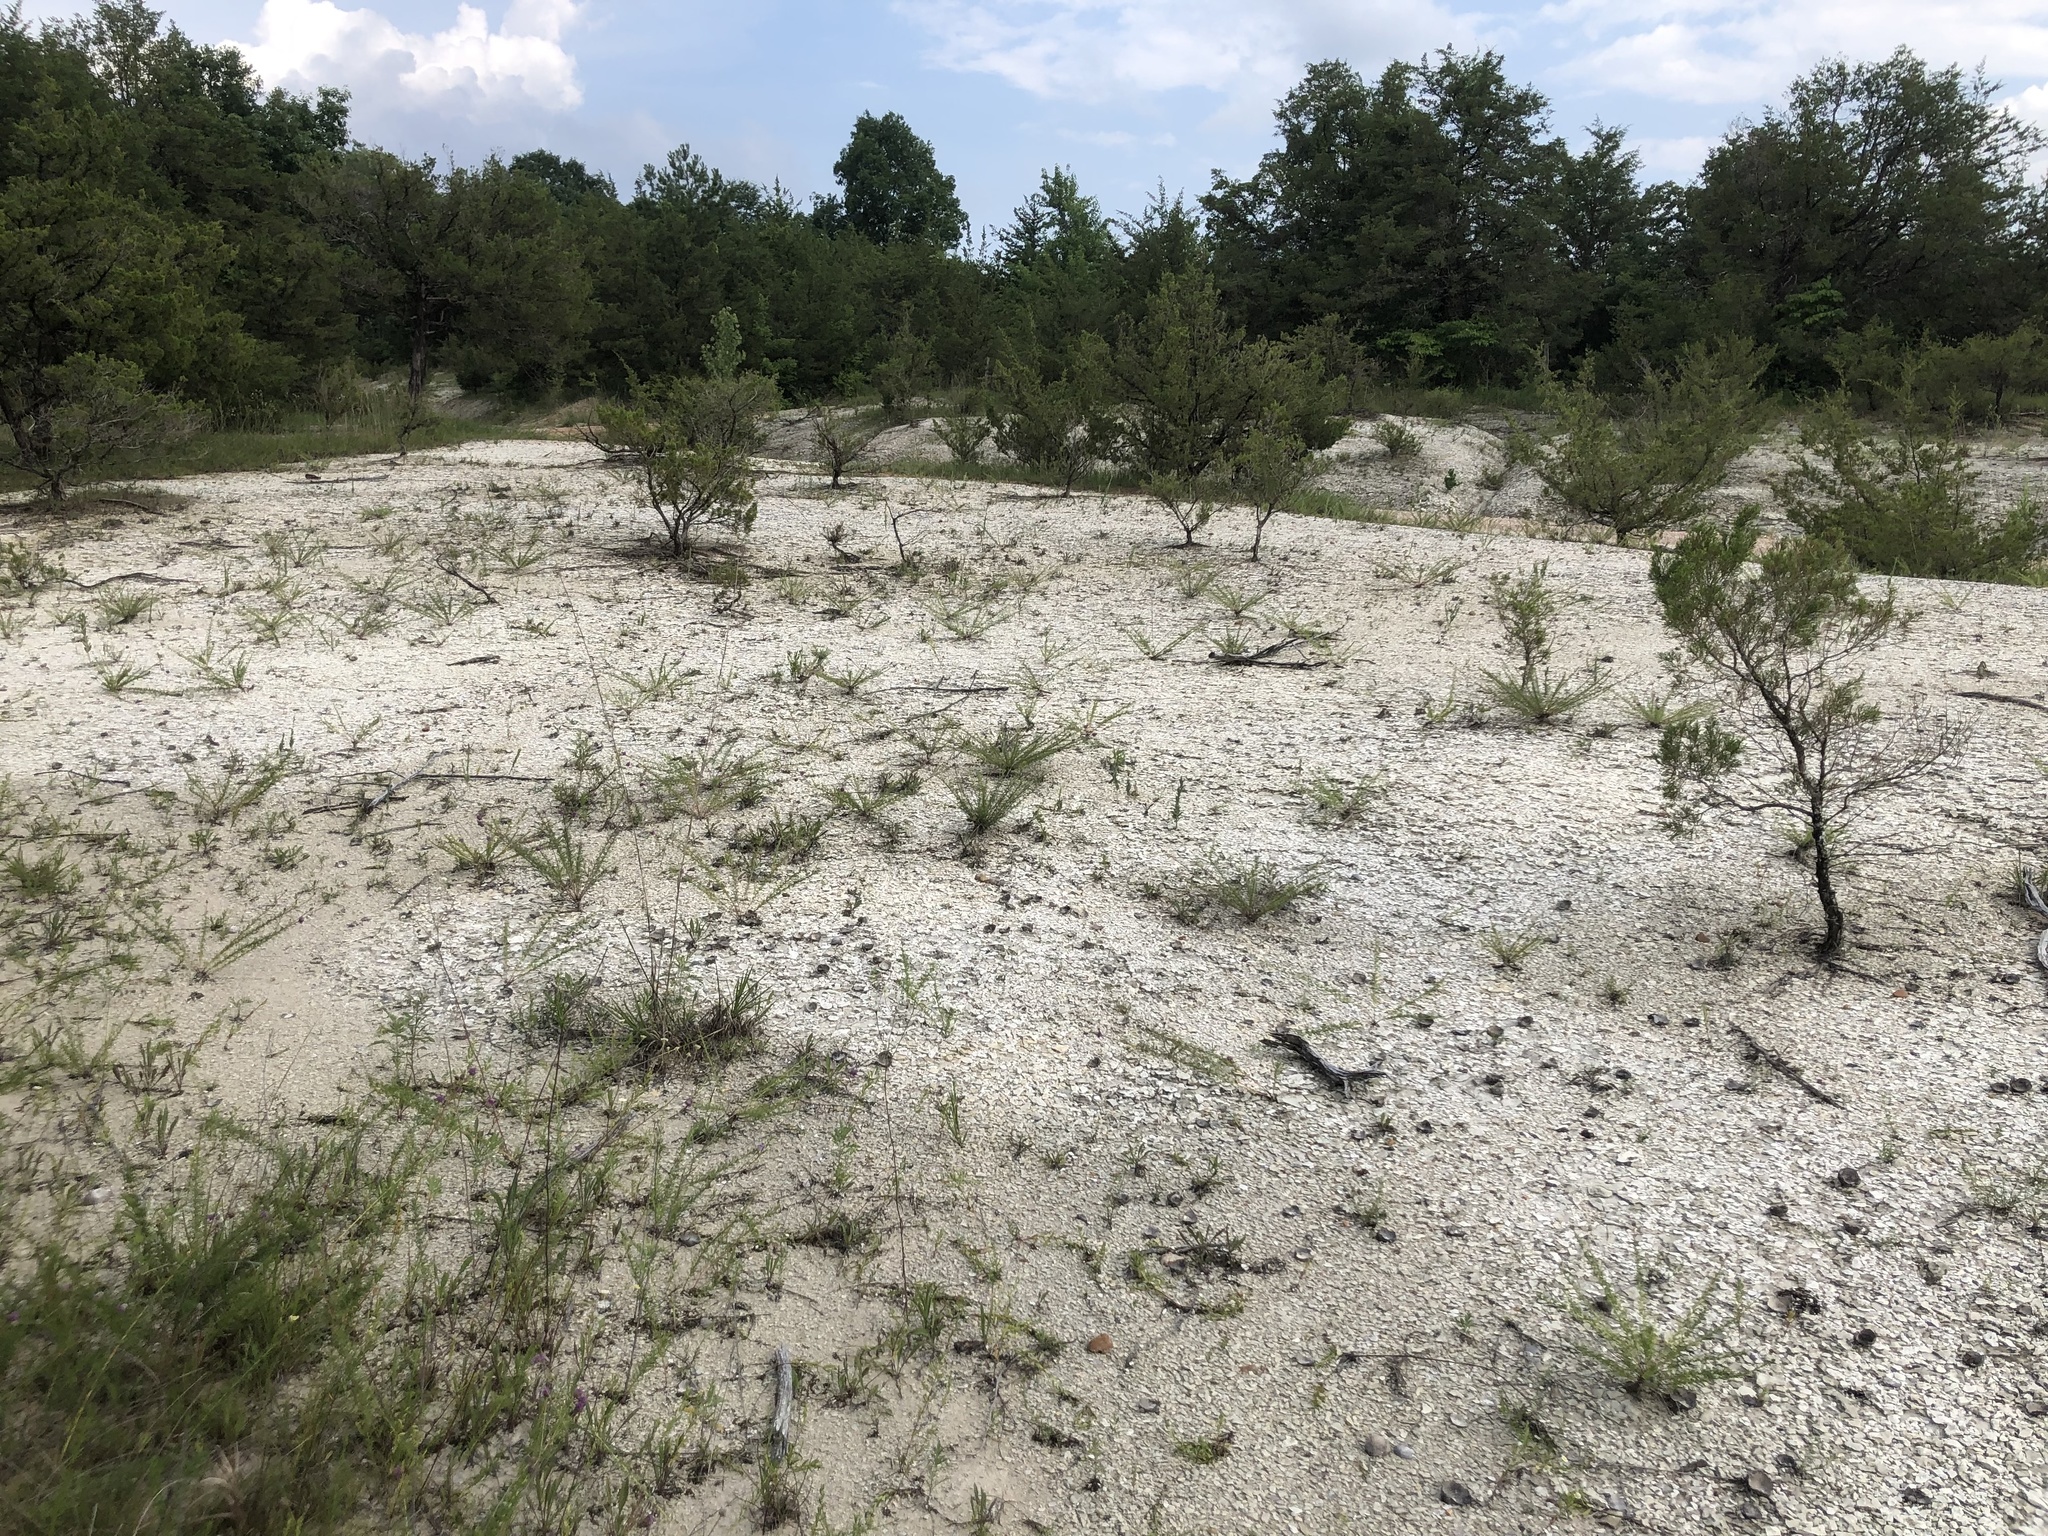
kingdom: Plantae
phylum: Tracheophyta
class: Pinopsida
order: Pinales
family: Cupressaceae
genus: Juniperus
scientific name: Juniperus virginiana
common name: Red juniper
